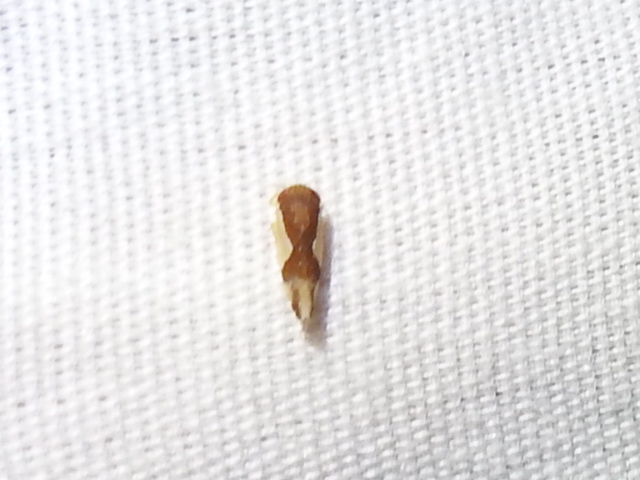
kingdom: Animalia
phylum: Arthropoda
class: Insecta
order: Hemiptera
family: Cicadellidae
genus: Norvellina
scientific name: Norvellina pulchella
